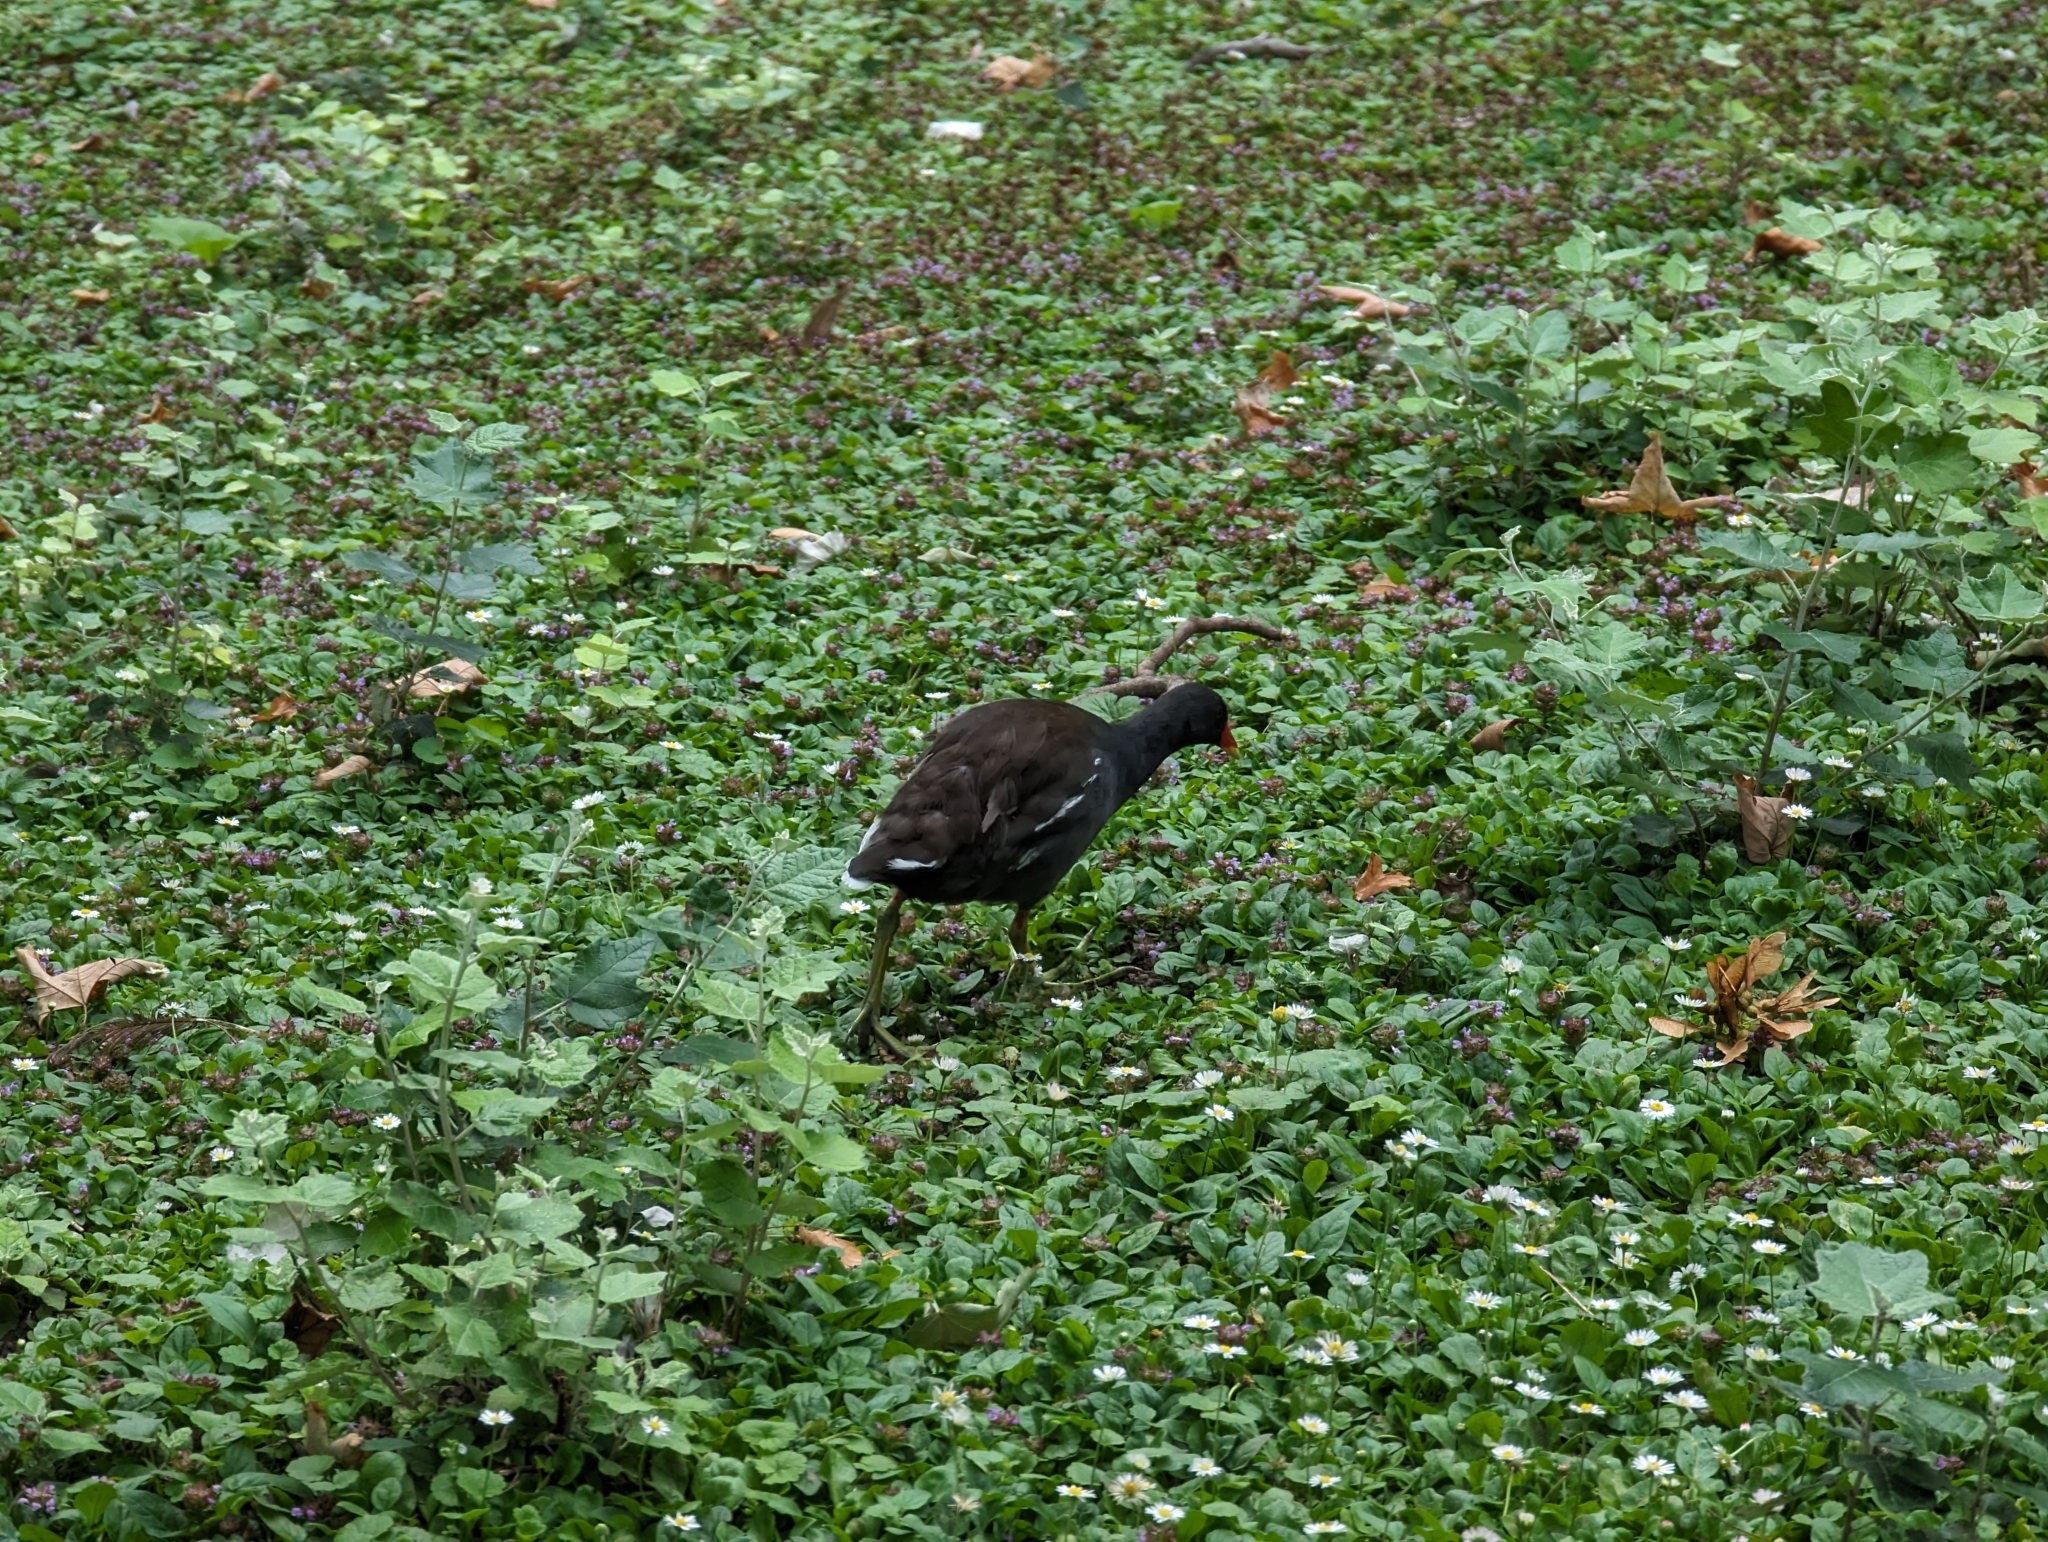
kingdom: Animalia
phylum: Chordata
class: Aves
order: Gruiformes
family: Rallidae
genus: Gallinula
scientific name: Gallinula chloropus
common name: Common moorhen
